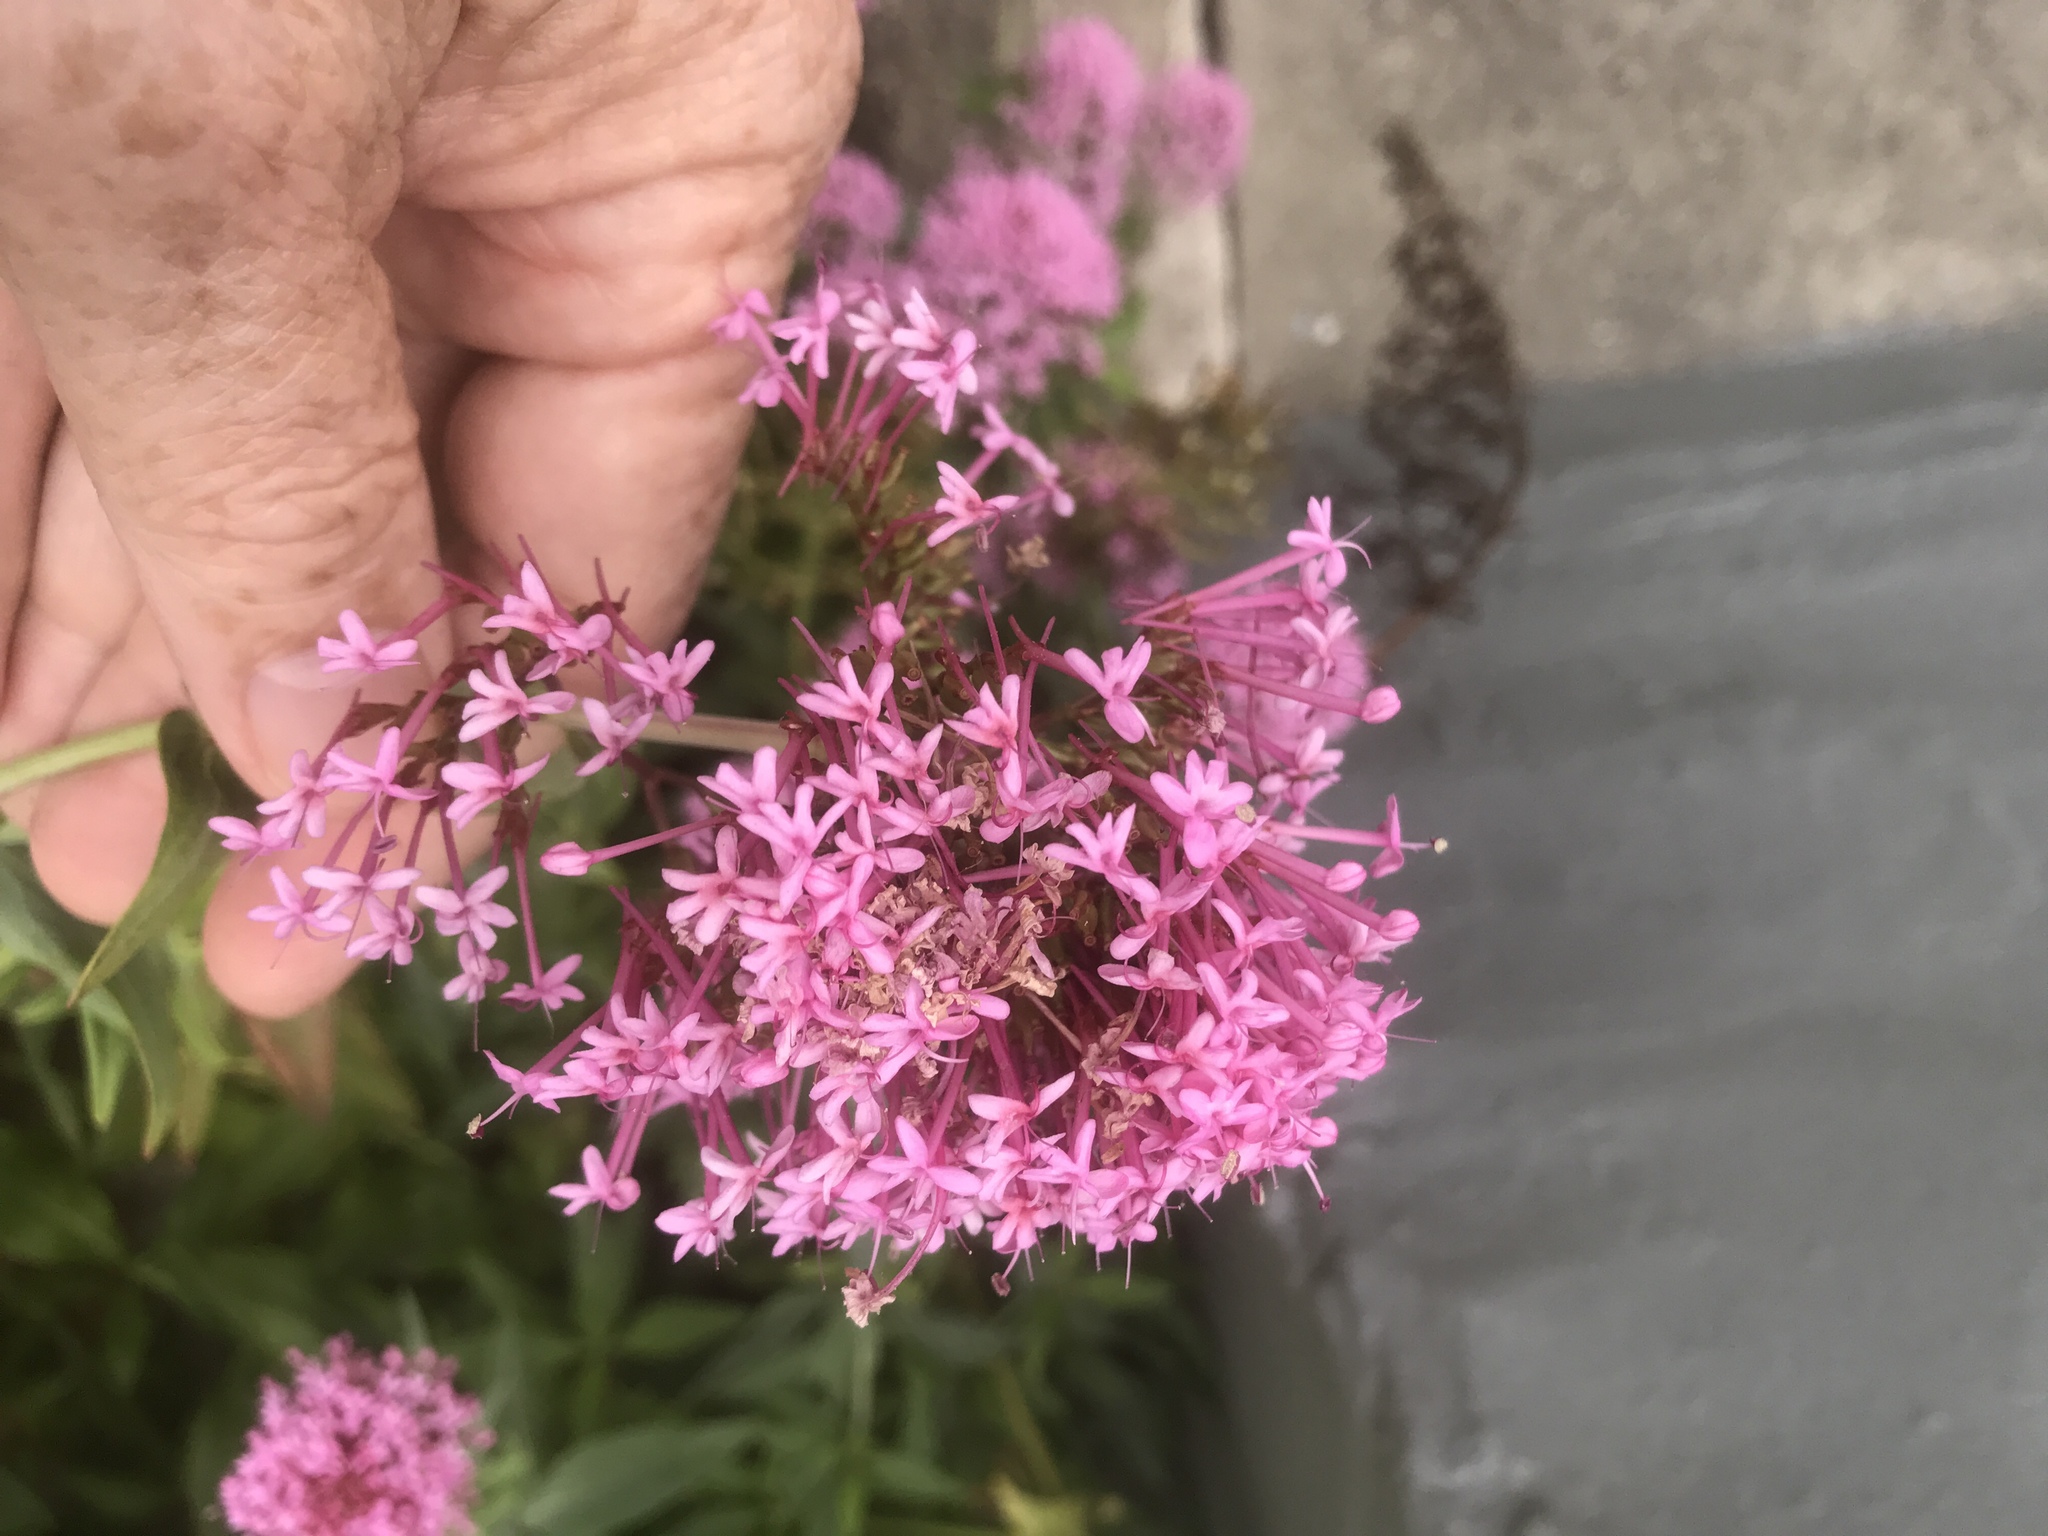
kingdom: Plantae
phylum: Tracheophyta
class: Magnoliopsida
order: Dipsacales
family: Caprifoliaceae
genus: Centranthus
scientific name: Centranthus ruber
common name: Red valerian
